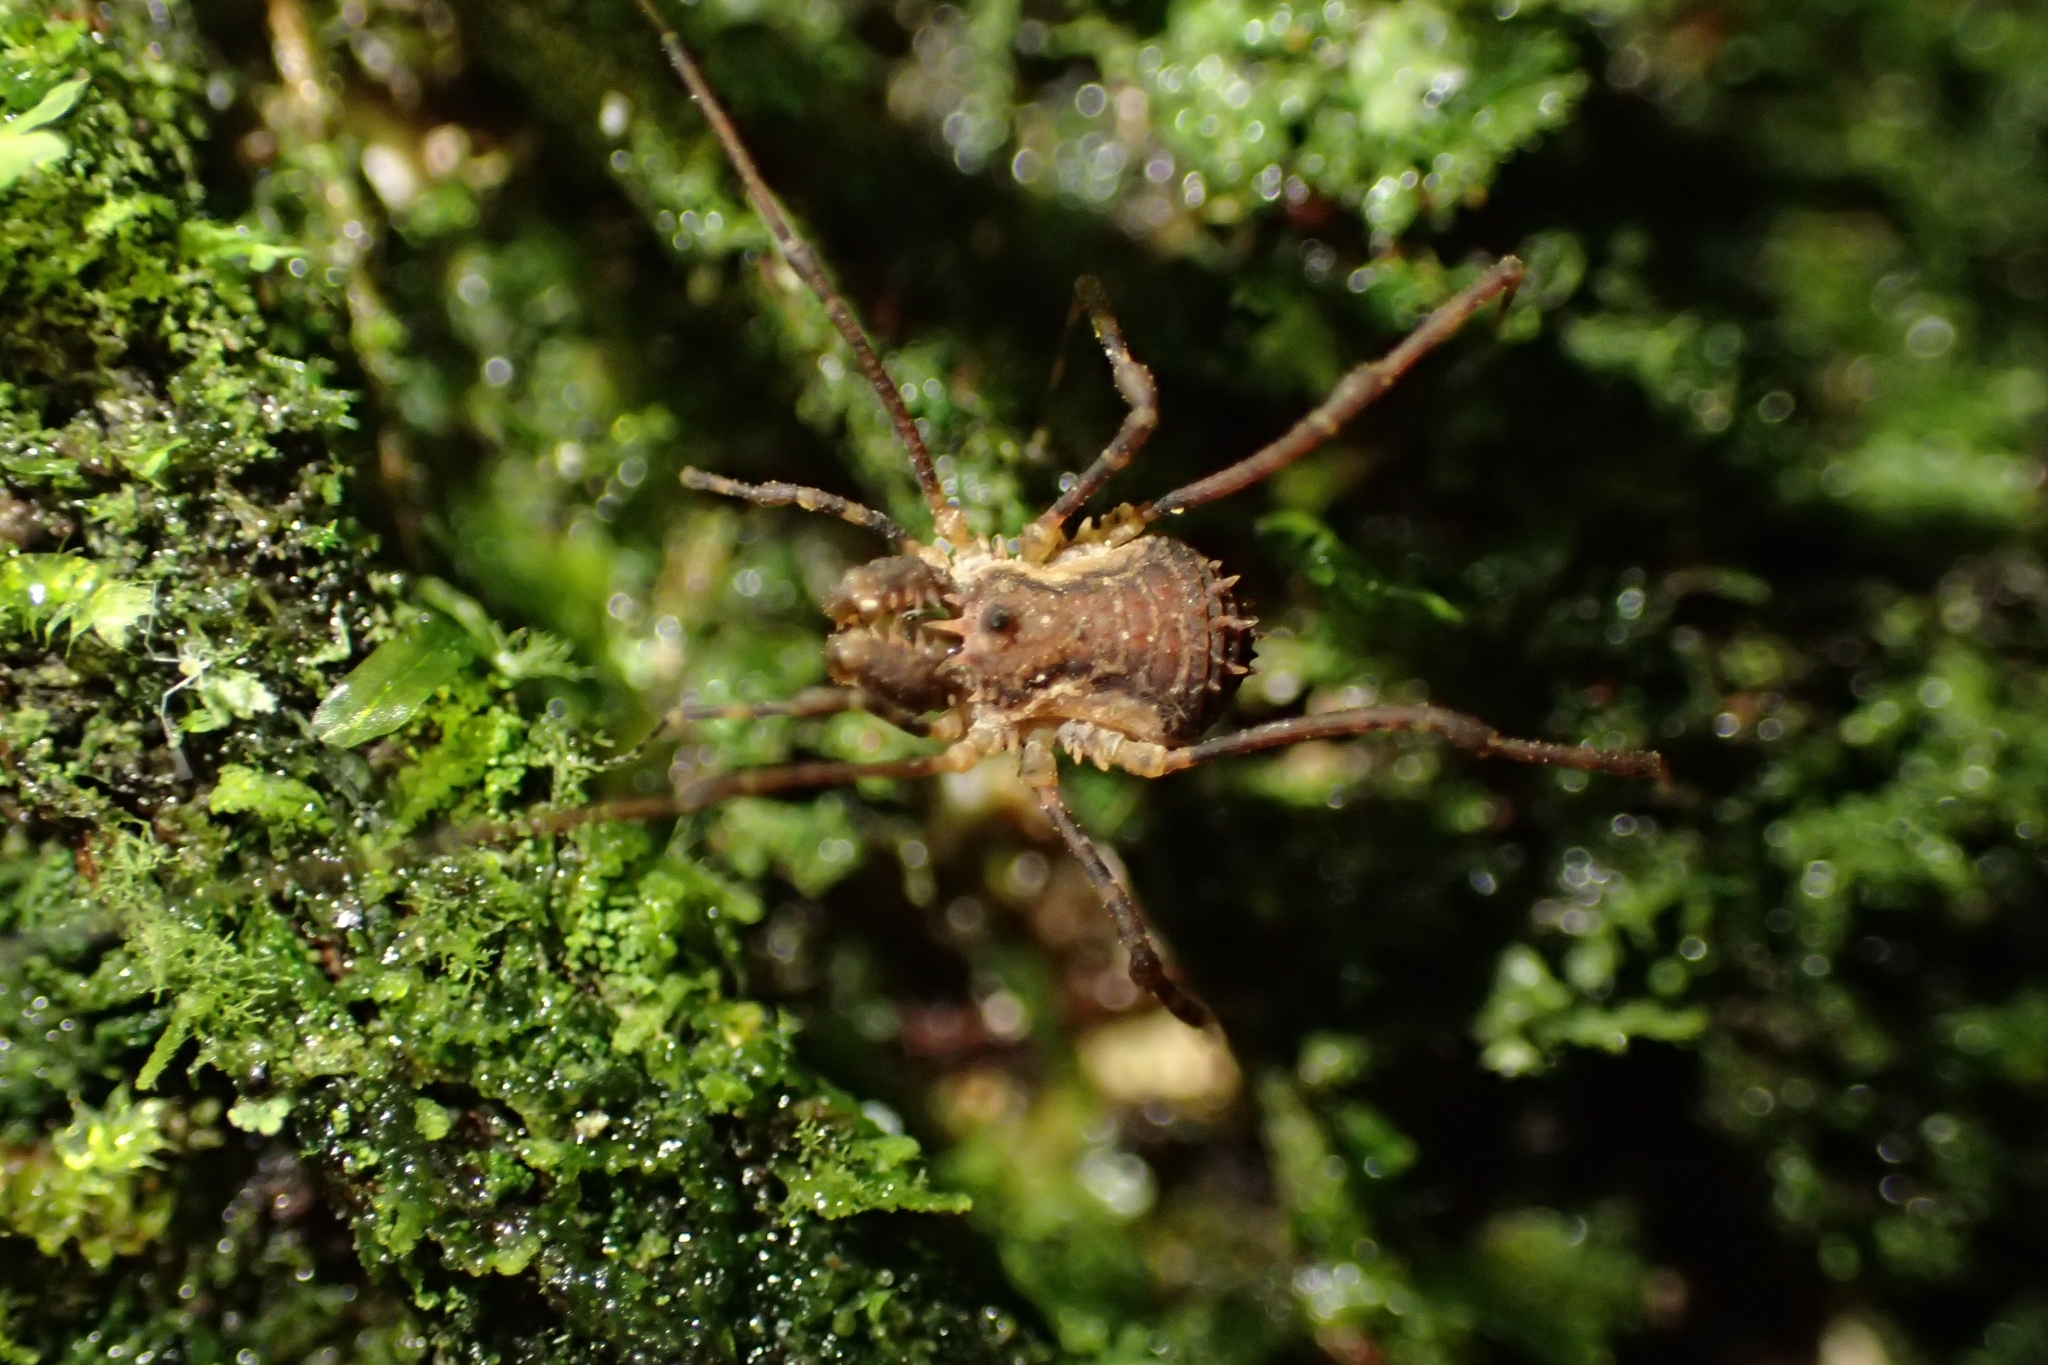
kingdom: Animalia
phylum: Arthropoda
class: Arachnida
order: Opiliones
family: Triaenonychidae
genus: Algidia
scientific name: Algidia chiltoni
